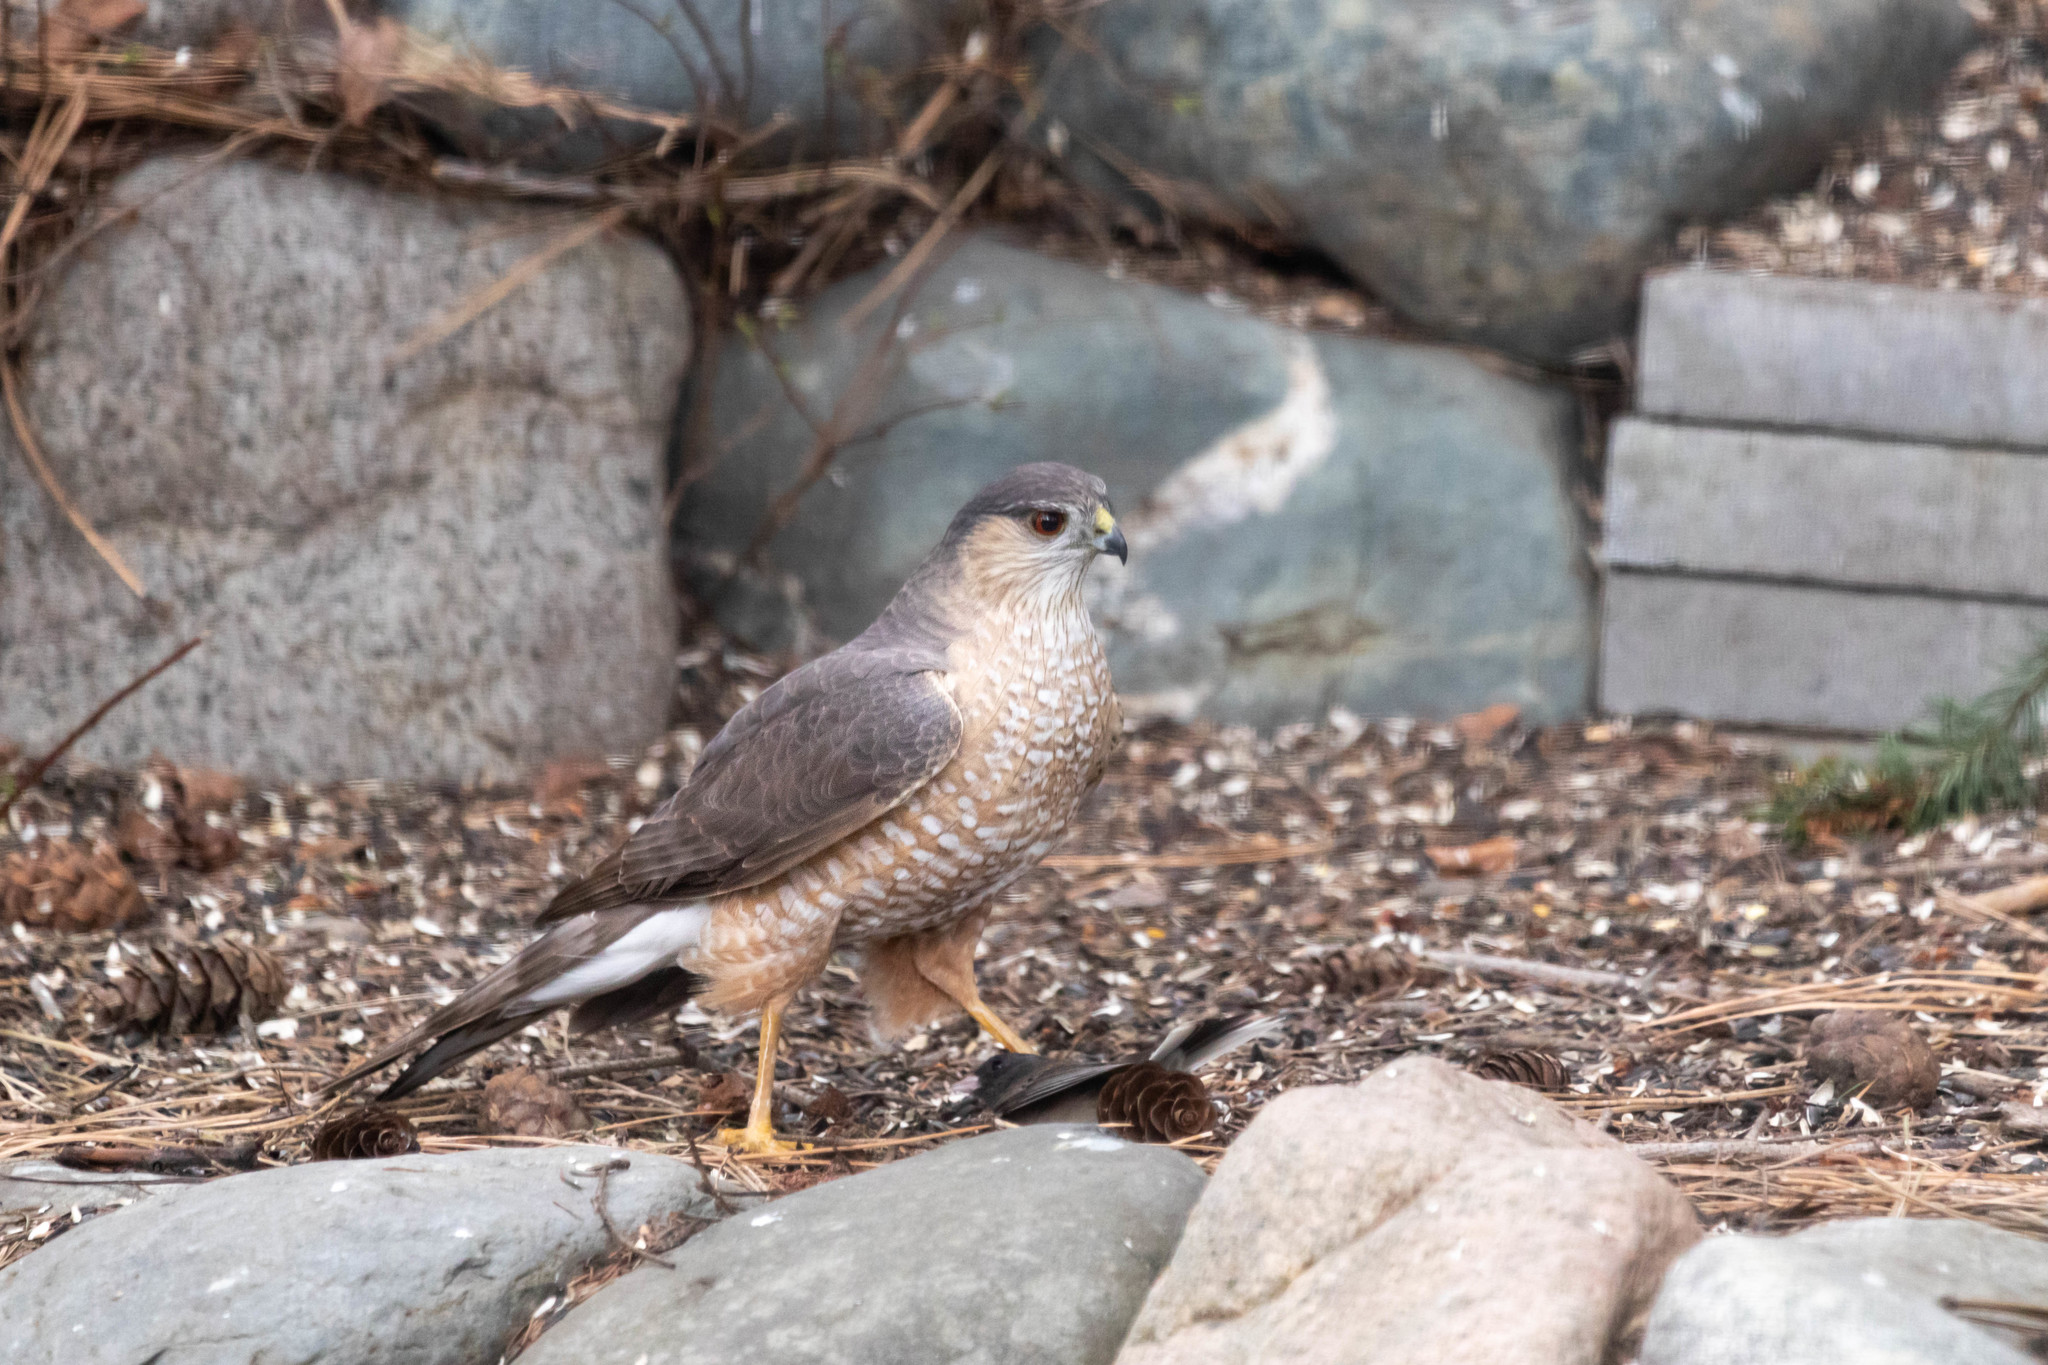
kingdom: Animalia
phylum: Chordata
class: Aves
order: Accipitriformes
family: Accipitridae
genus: Accipiter
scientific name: Accipiter striatus
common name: Sharp-shinned hawk
